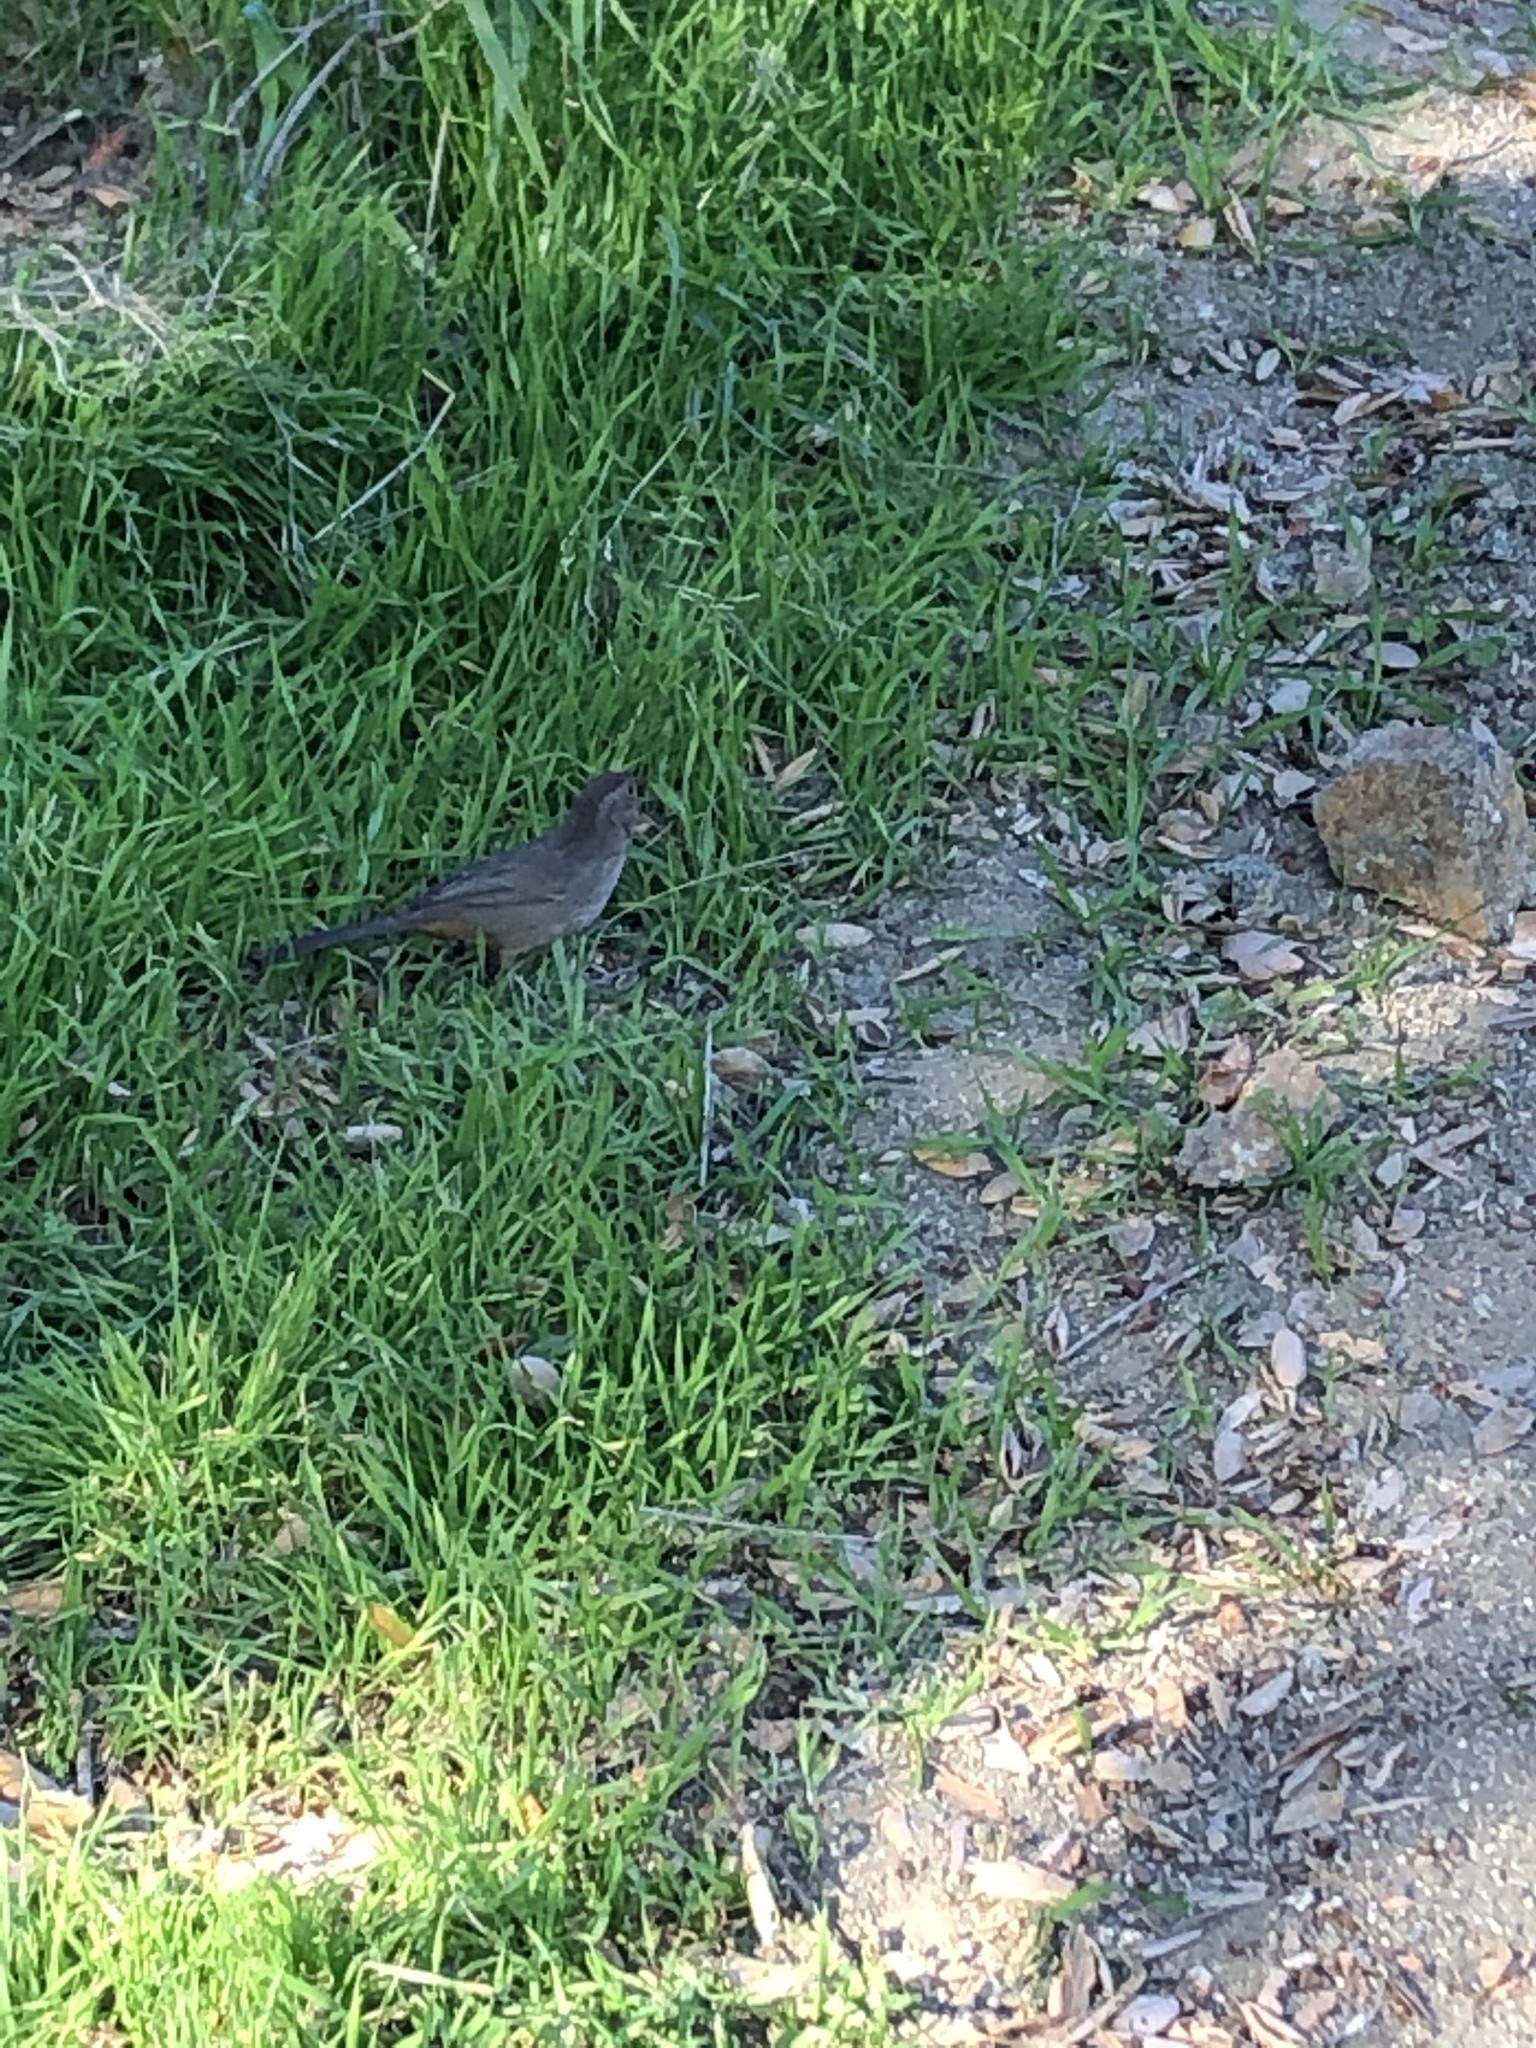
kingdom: Animalia
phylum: Chordata
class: Aves
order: Passeriformes
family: Passeridae
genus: Passer
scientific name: Passer domesticus
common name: House sparrow
